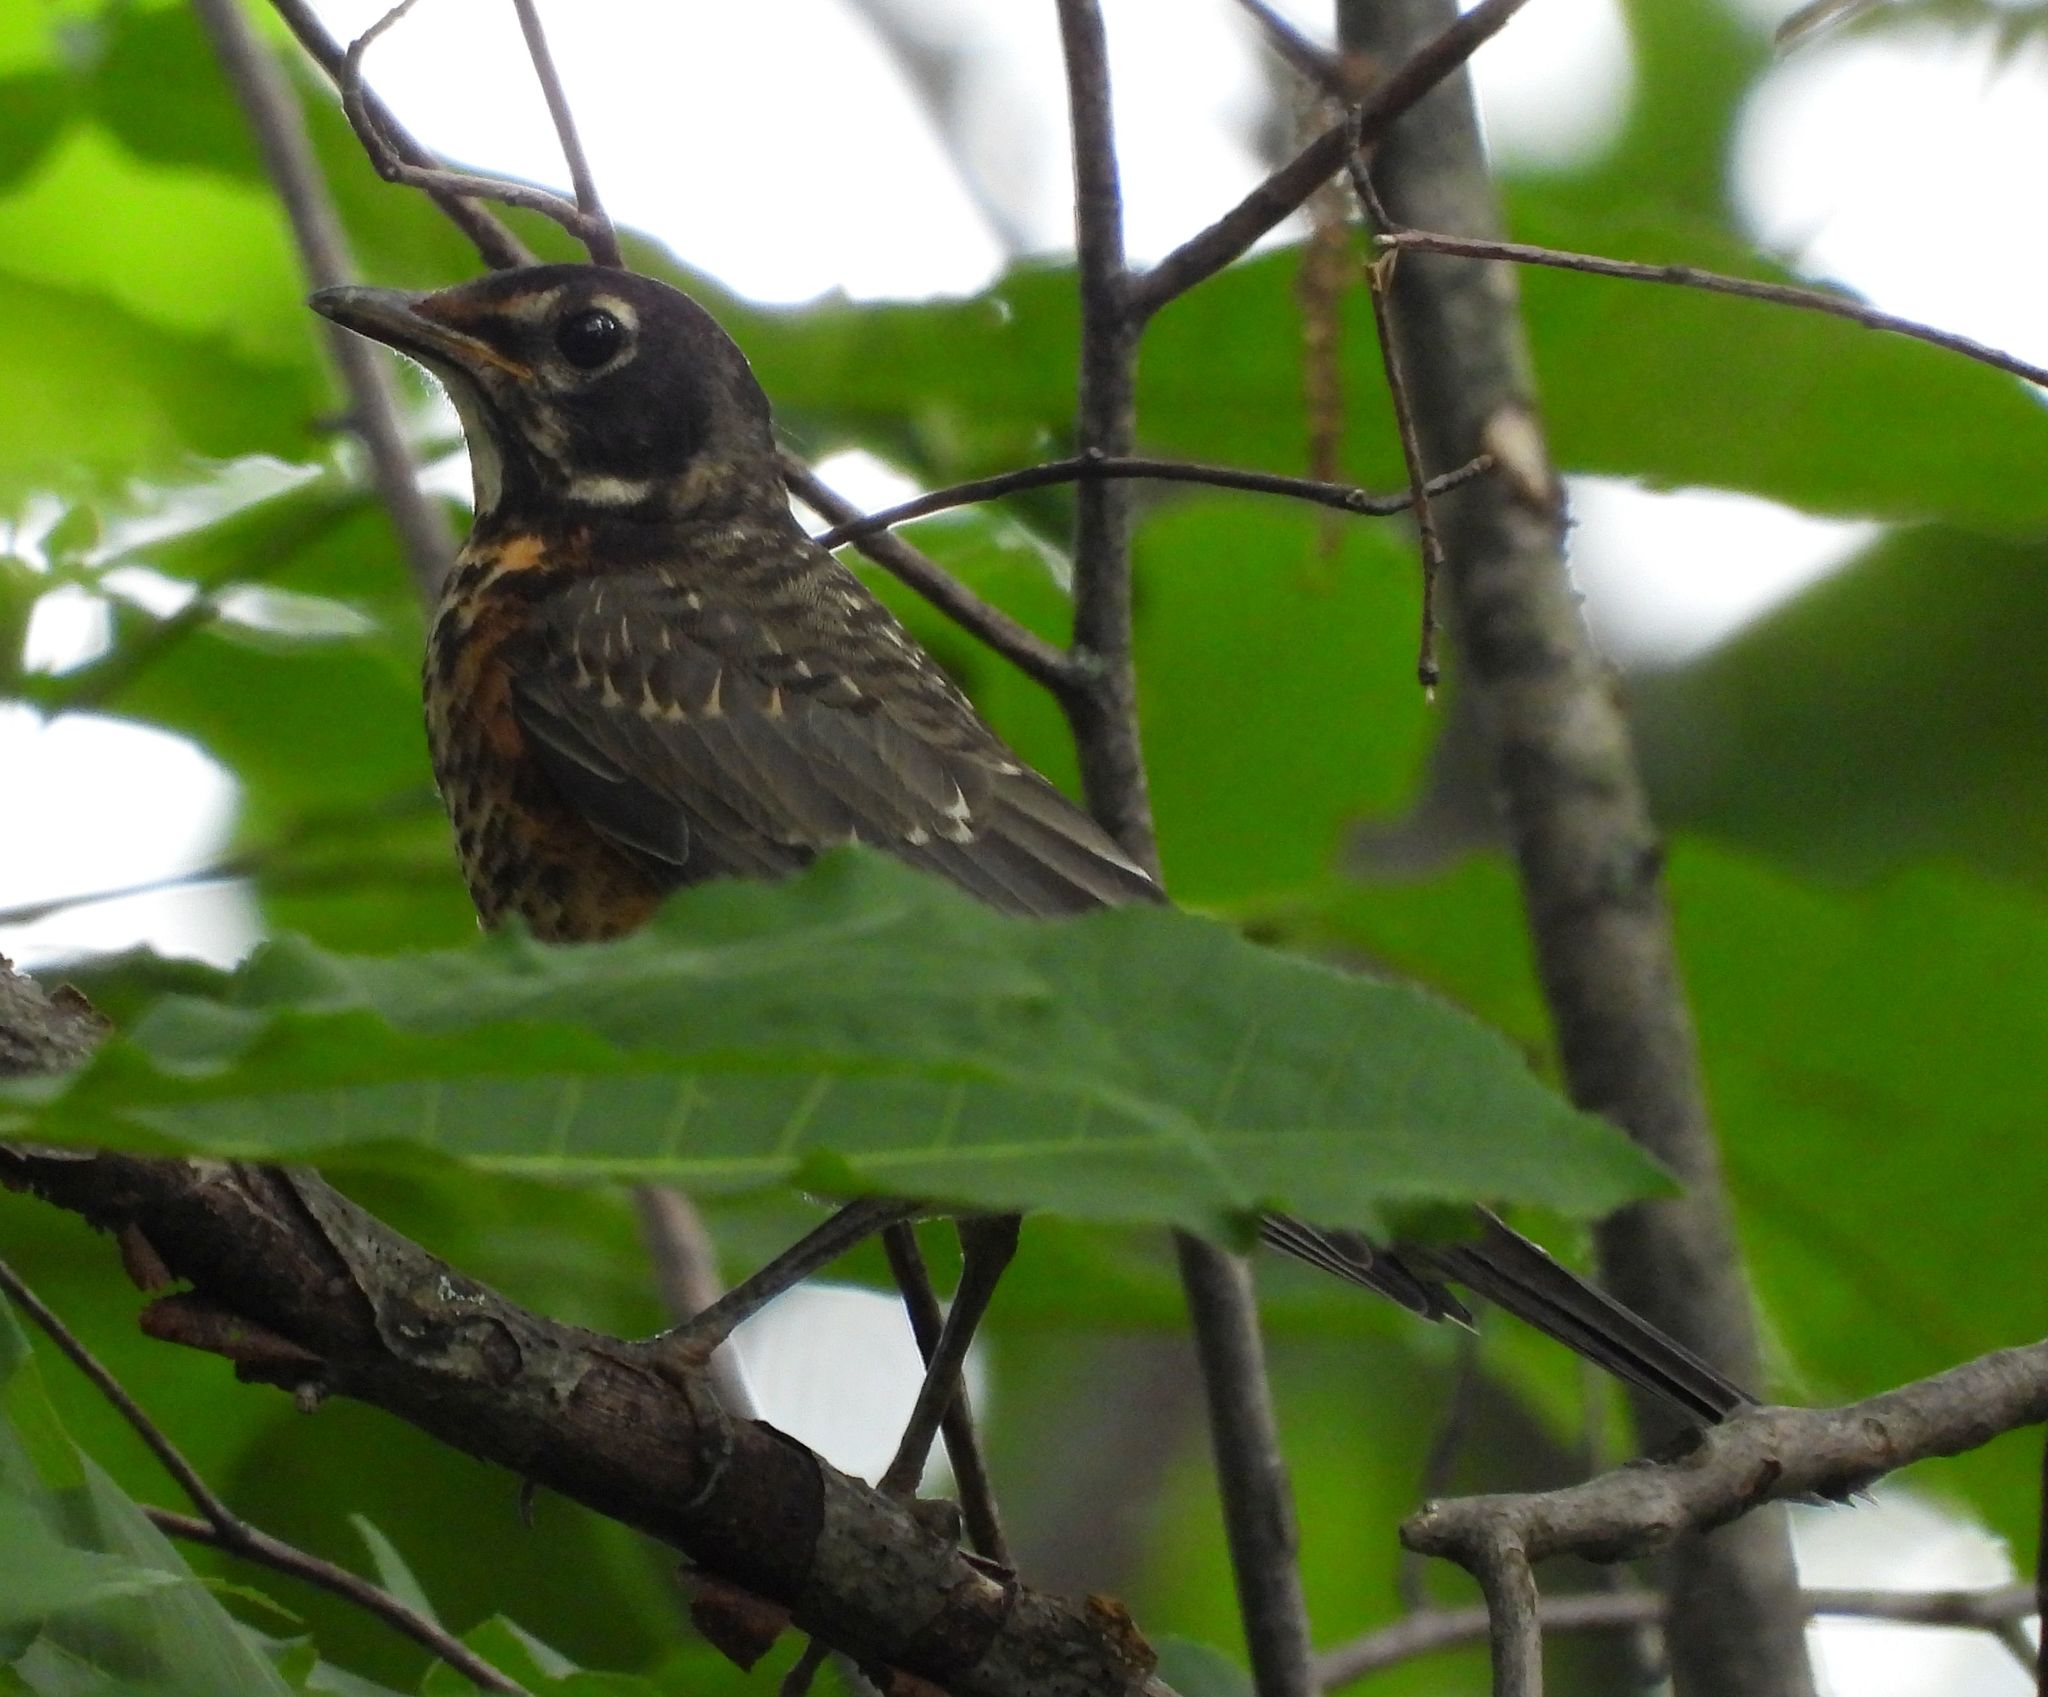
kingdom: Animalia
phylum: Chordata
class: Aves
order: Passeriformes
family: Turdidae
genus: Turdus
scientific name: Turdus migratorius
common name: American robin
